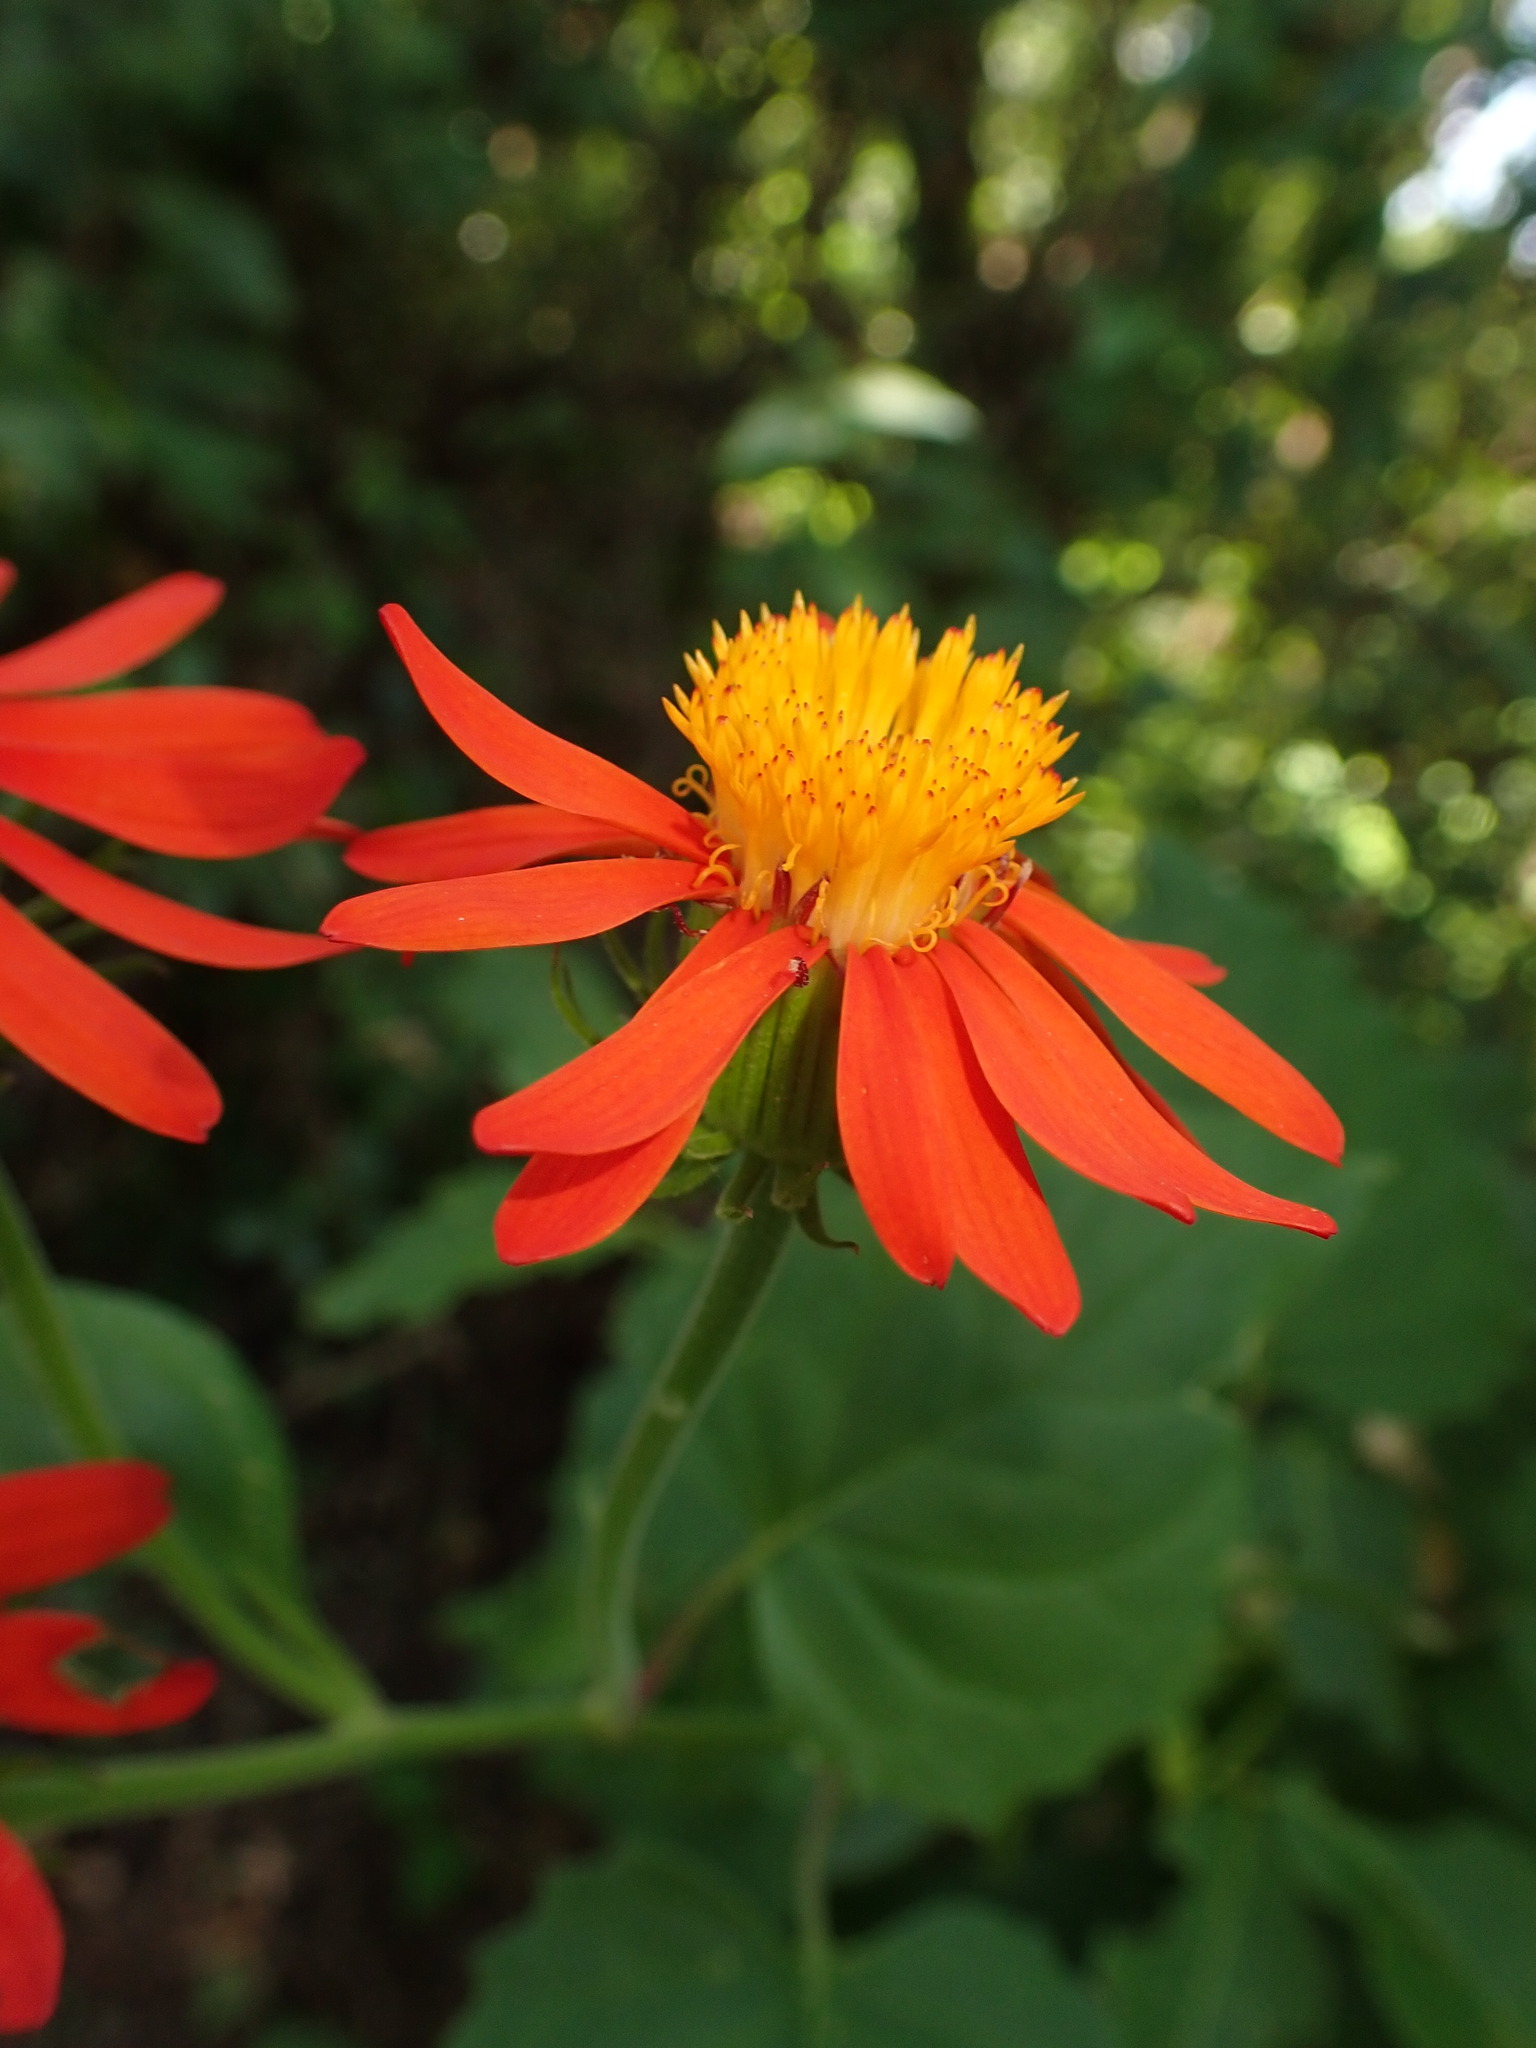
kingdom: Plantae
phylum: Tracheophyta
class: Magnoliopsida
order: Asterales
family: Asteraceae
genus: Pseudogynoxys
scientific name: Pseudogynoxys cumingii
